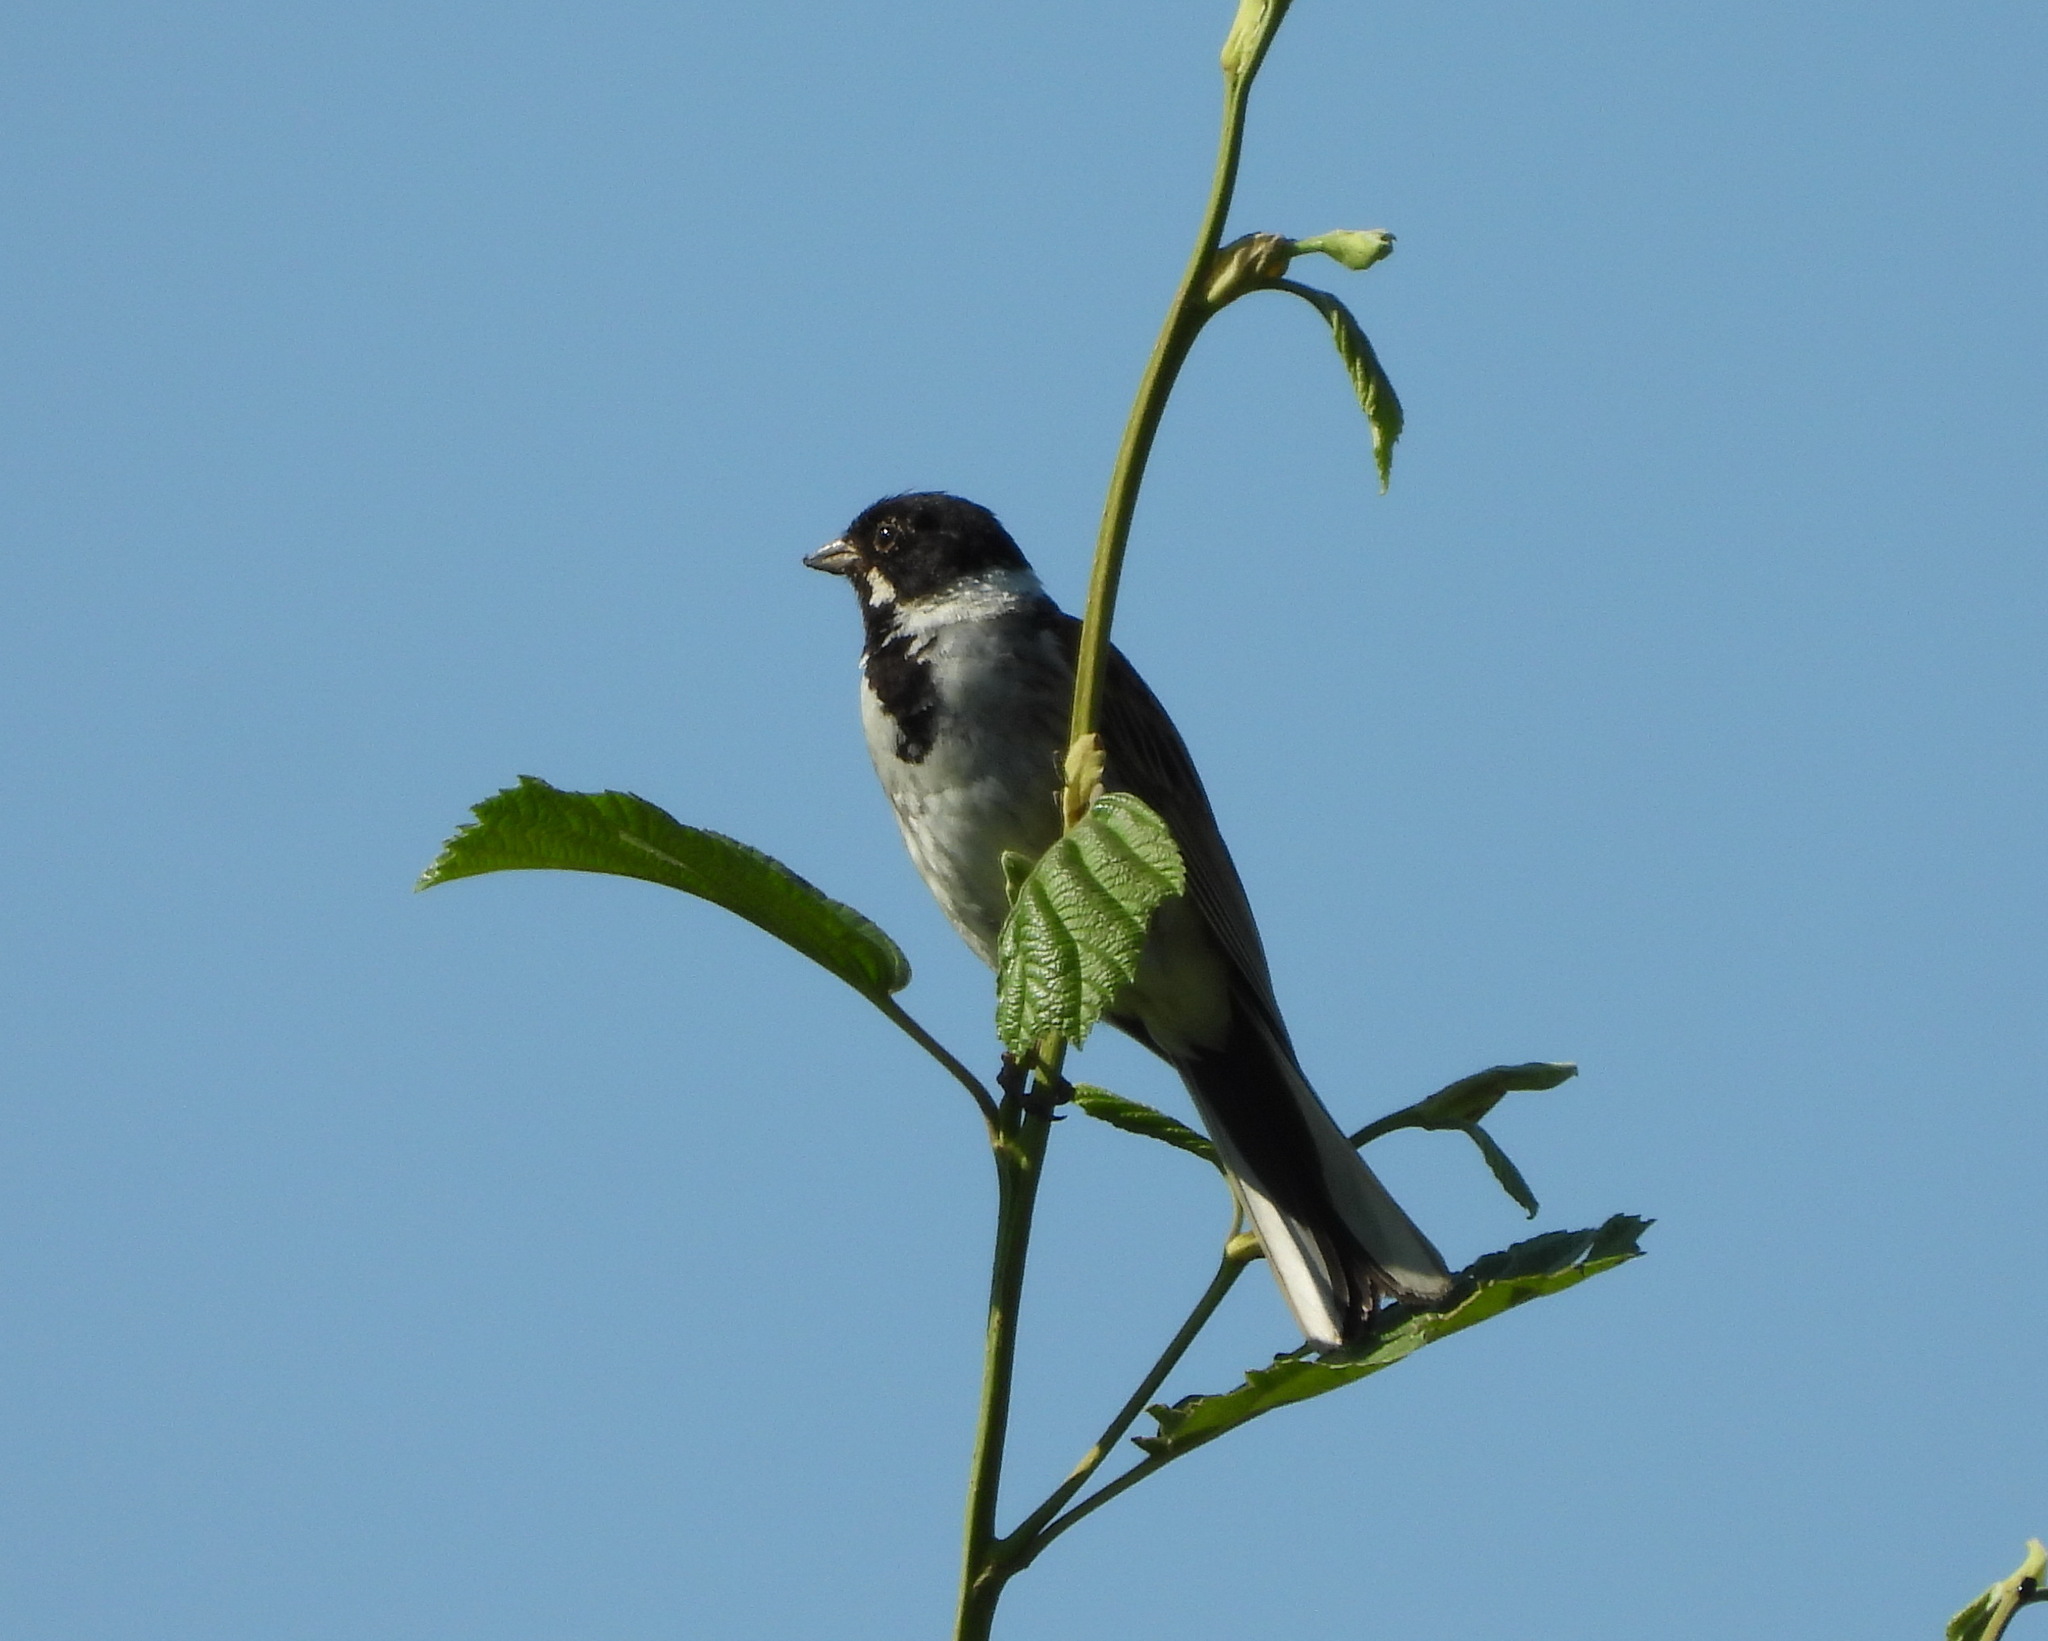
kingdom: Animalia
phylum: Chordata
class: Aves
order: Passeriformes
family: Emberizidae
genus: Emberiza
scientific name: Emberiza schoeniclus
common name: Reed bunting
